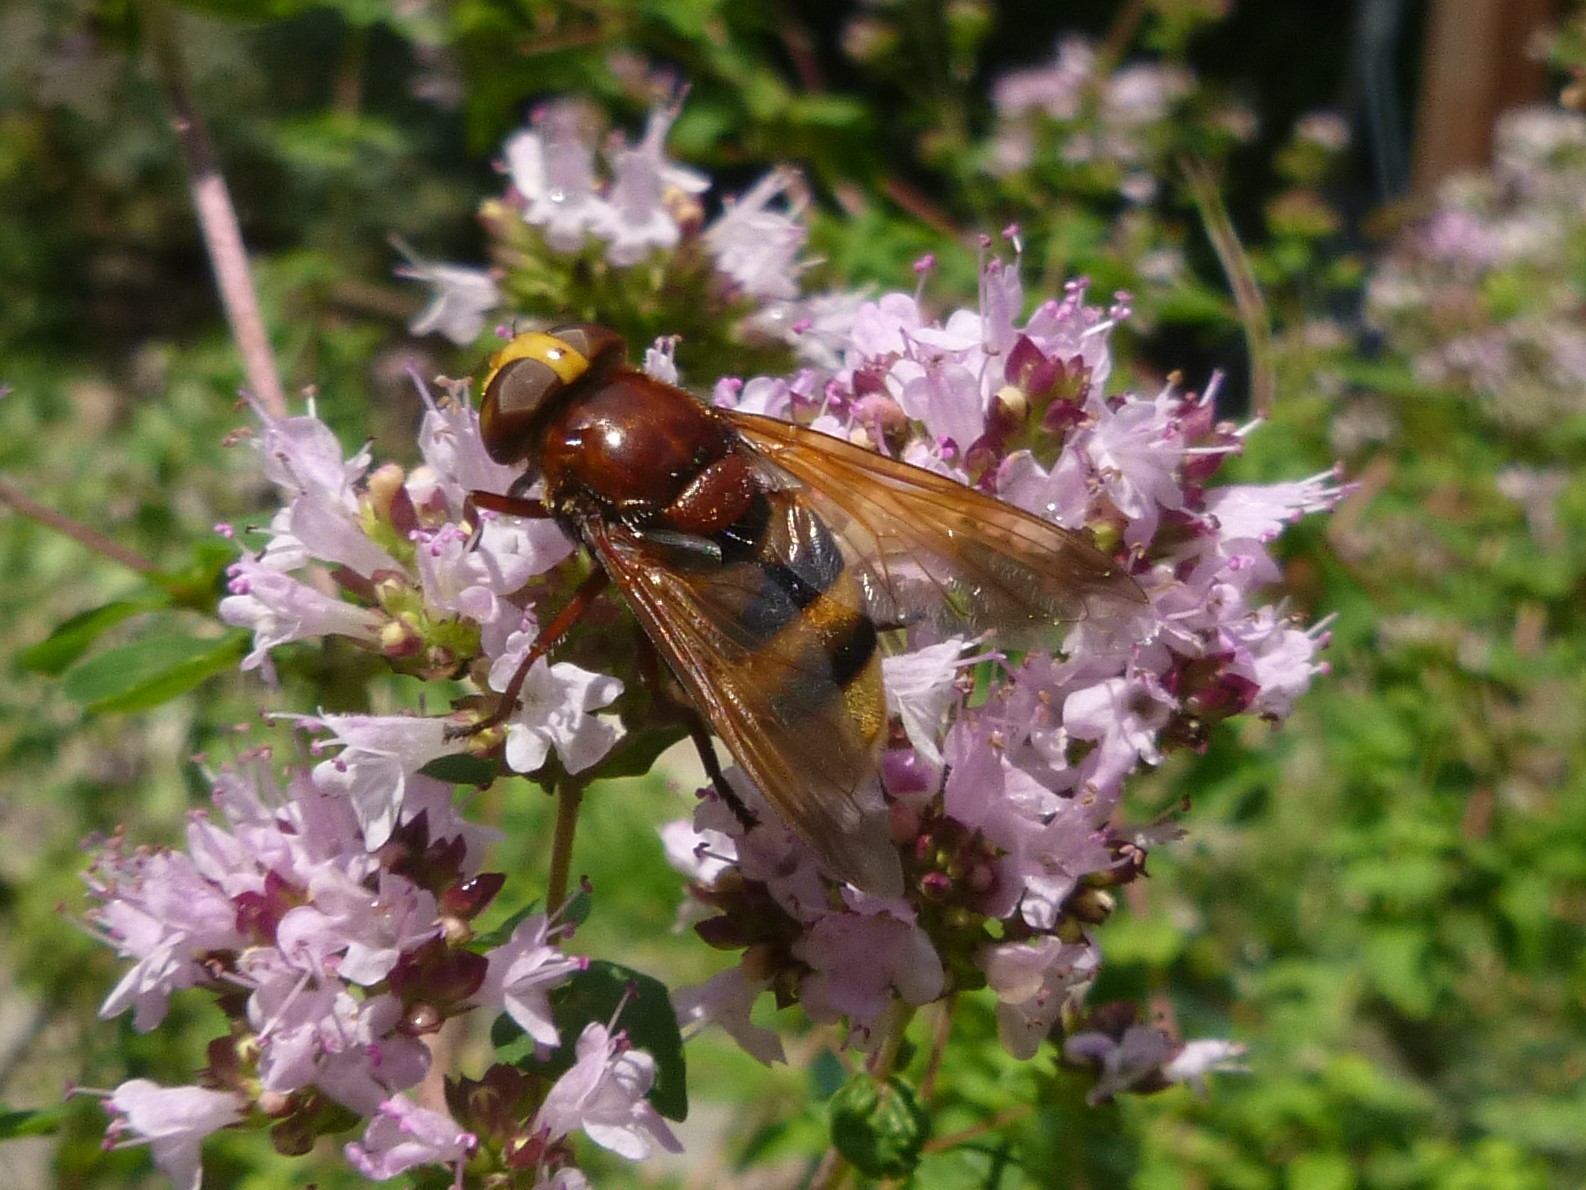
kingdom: Animalia
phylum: Arthropoda
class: Insecta
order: Diptera
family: Syrphidae
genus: Volucella
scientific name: Volucella zonaria
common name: Hornet hoverfly
